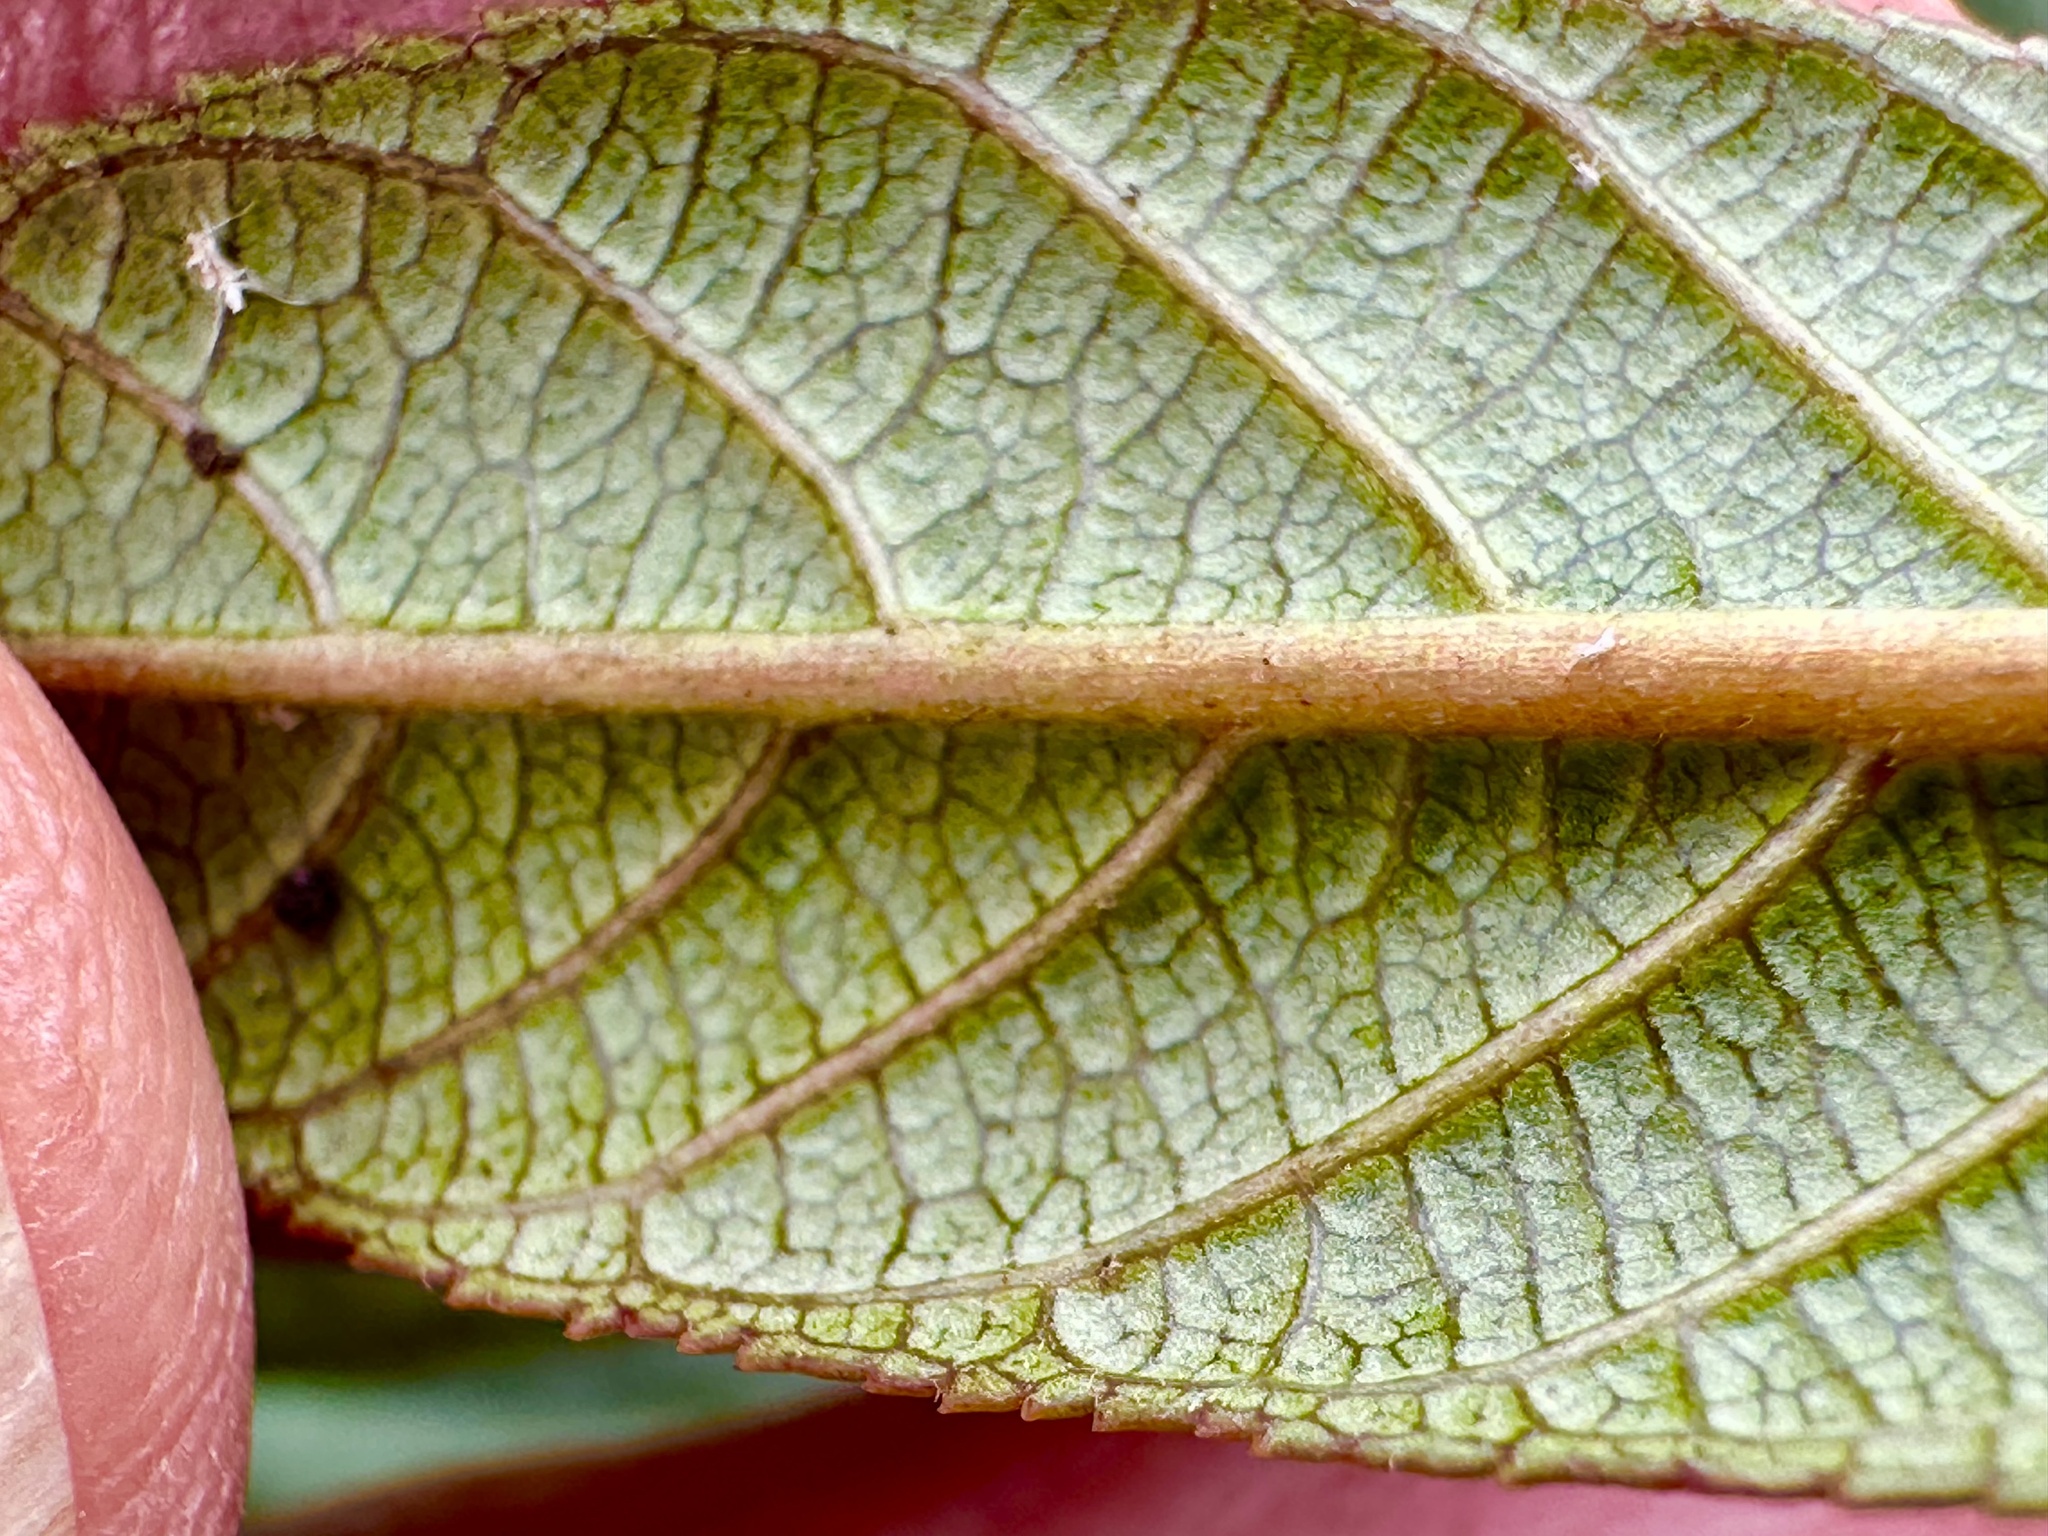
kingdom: Plantae
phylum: Tracheophyta
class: Magnoliopsida
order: Rosales
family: Rhamnaceae
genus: Frangula
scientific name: Frangula californica
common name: California buckthorn
